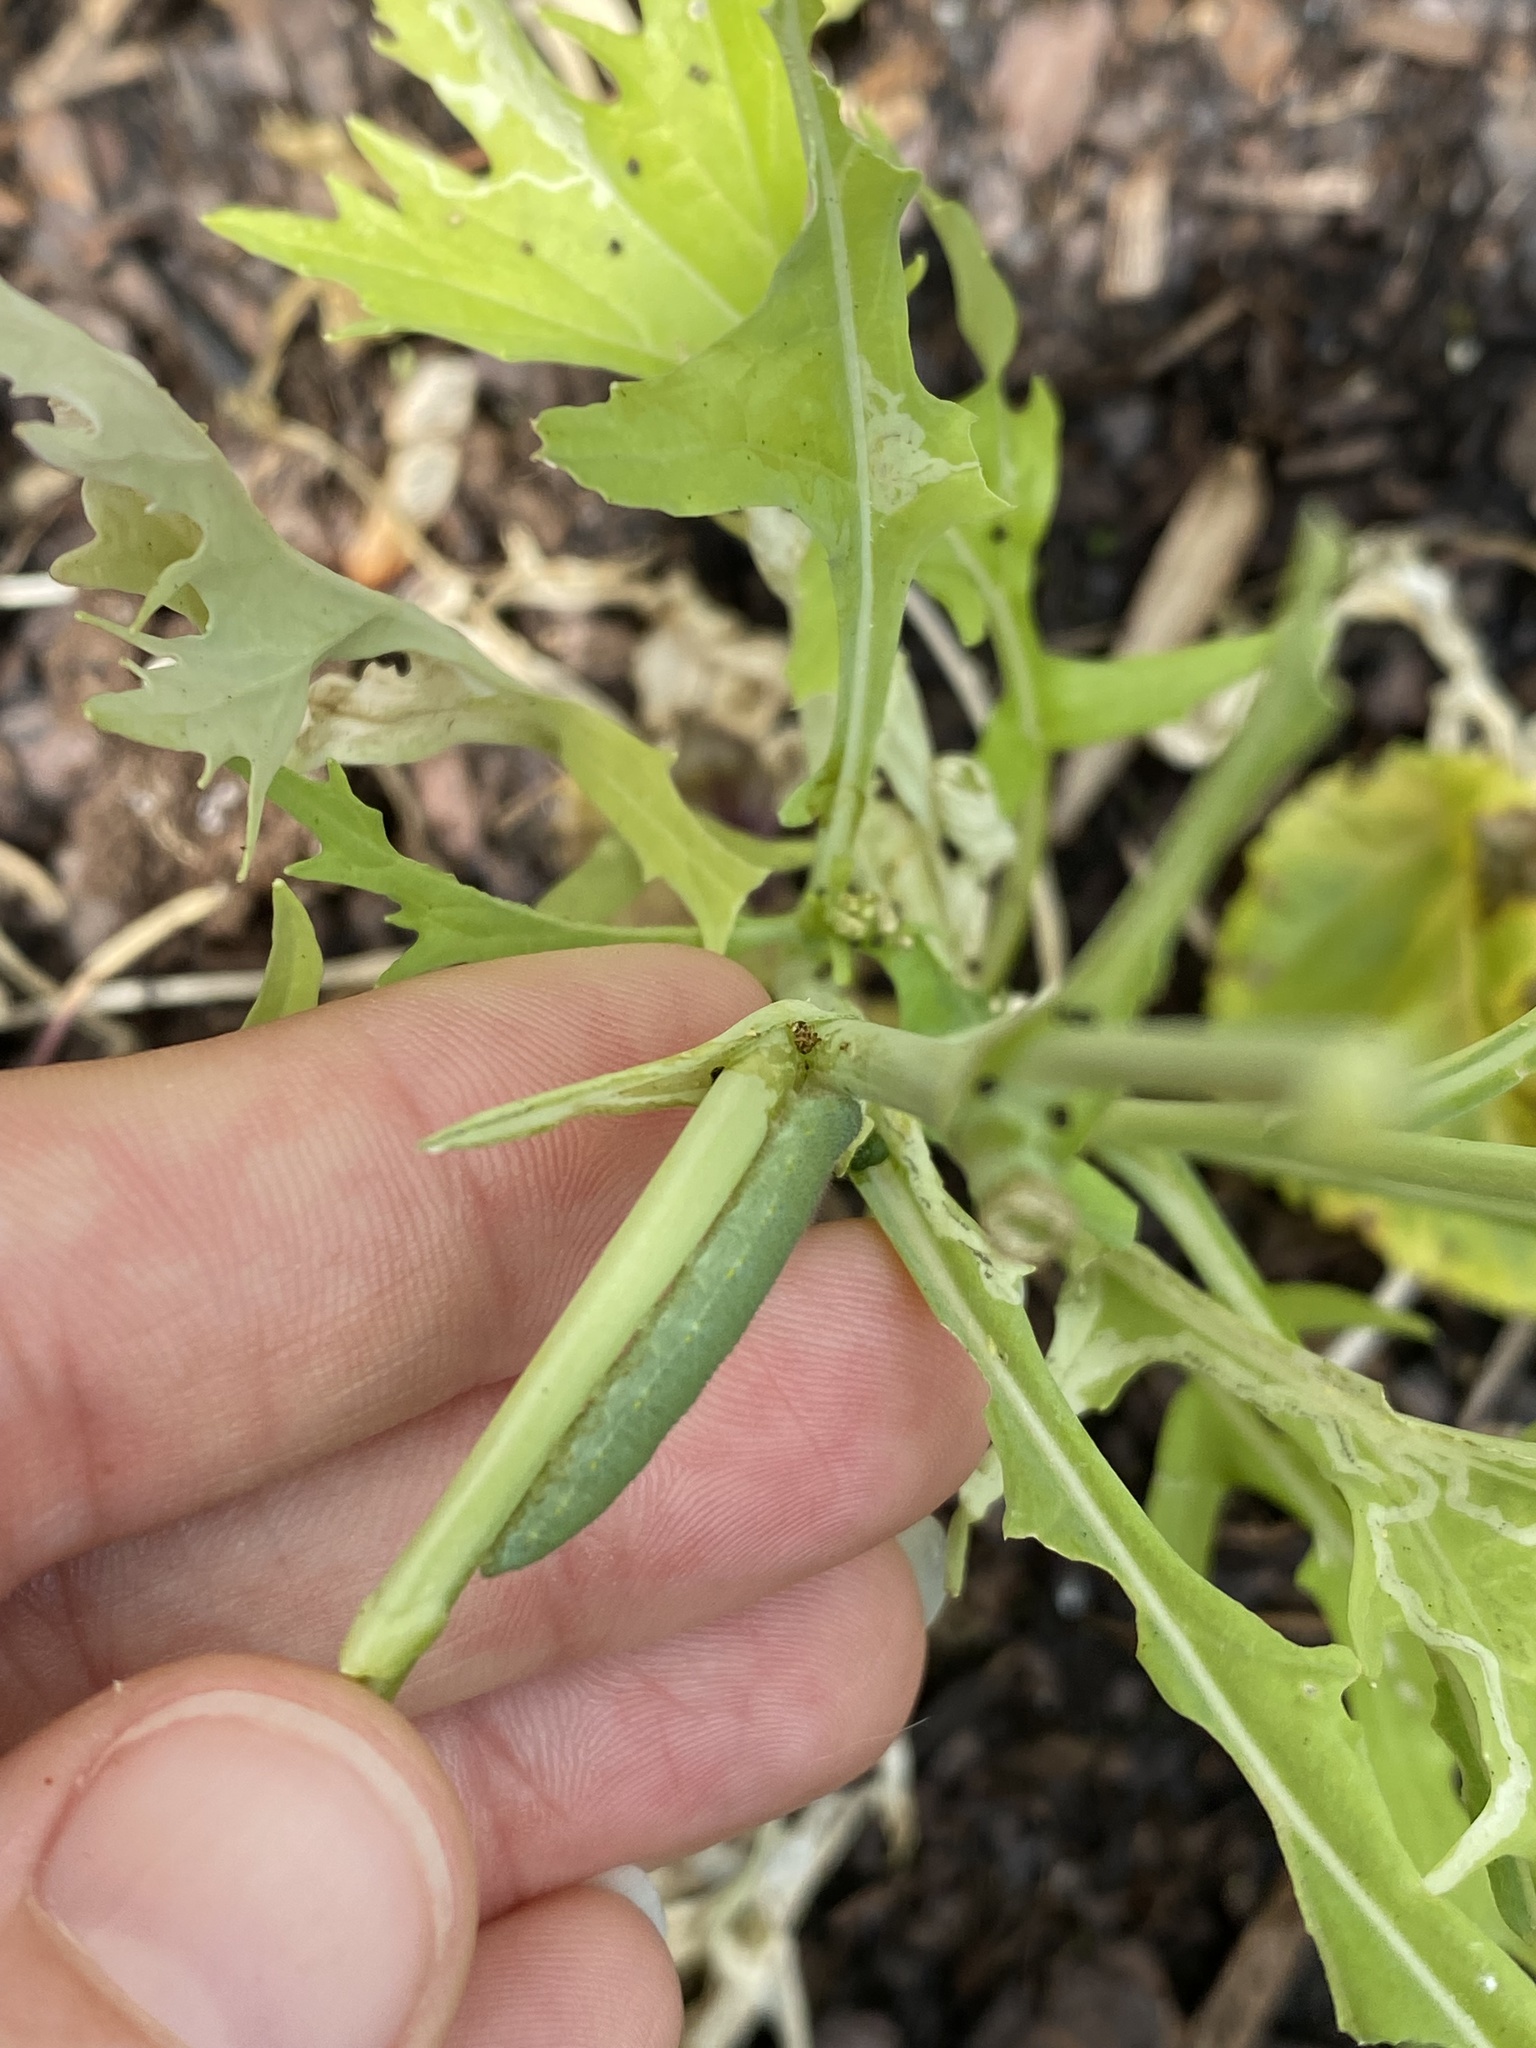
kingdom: Animalia
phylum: Arthropoda
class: Insecta
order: Lepidoptera
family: Pieridae
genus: Pieris
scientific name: Pieris rapae
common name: Small white
